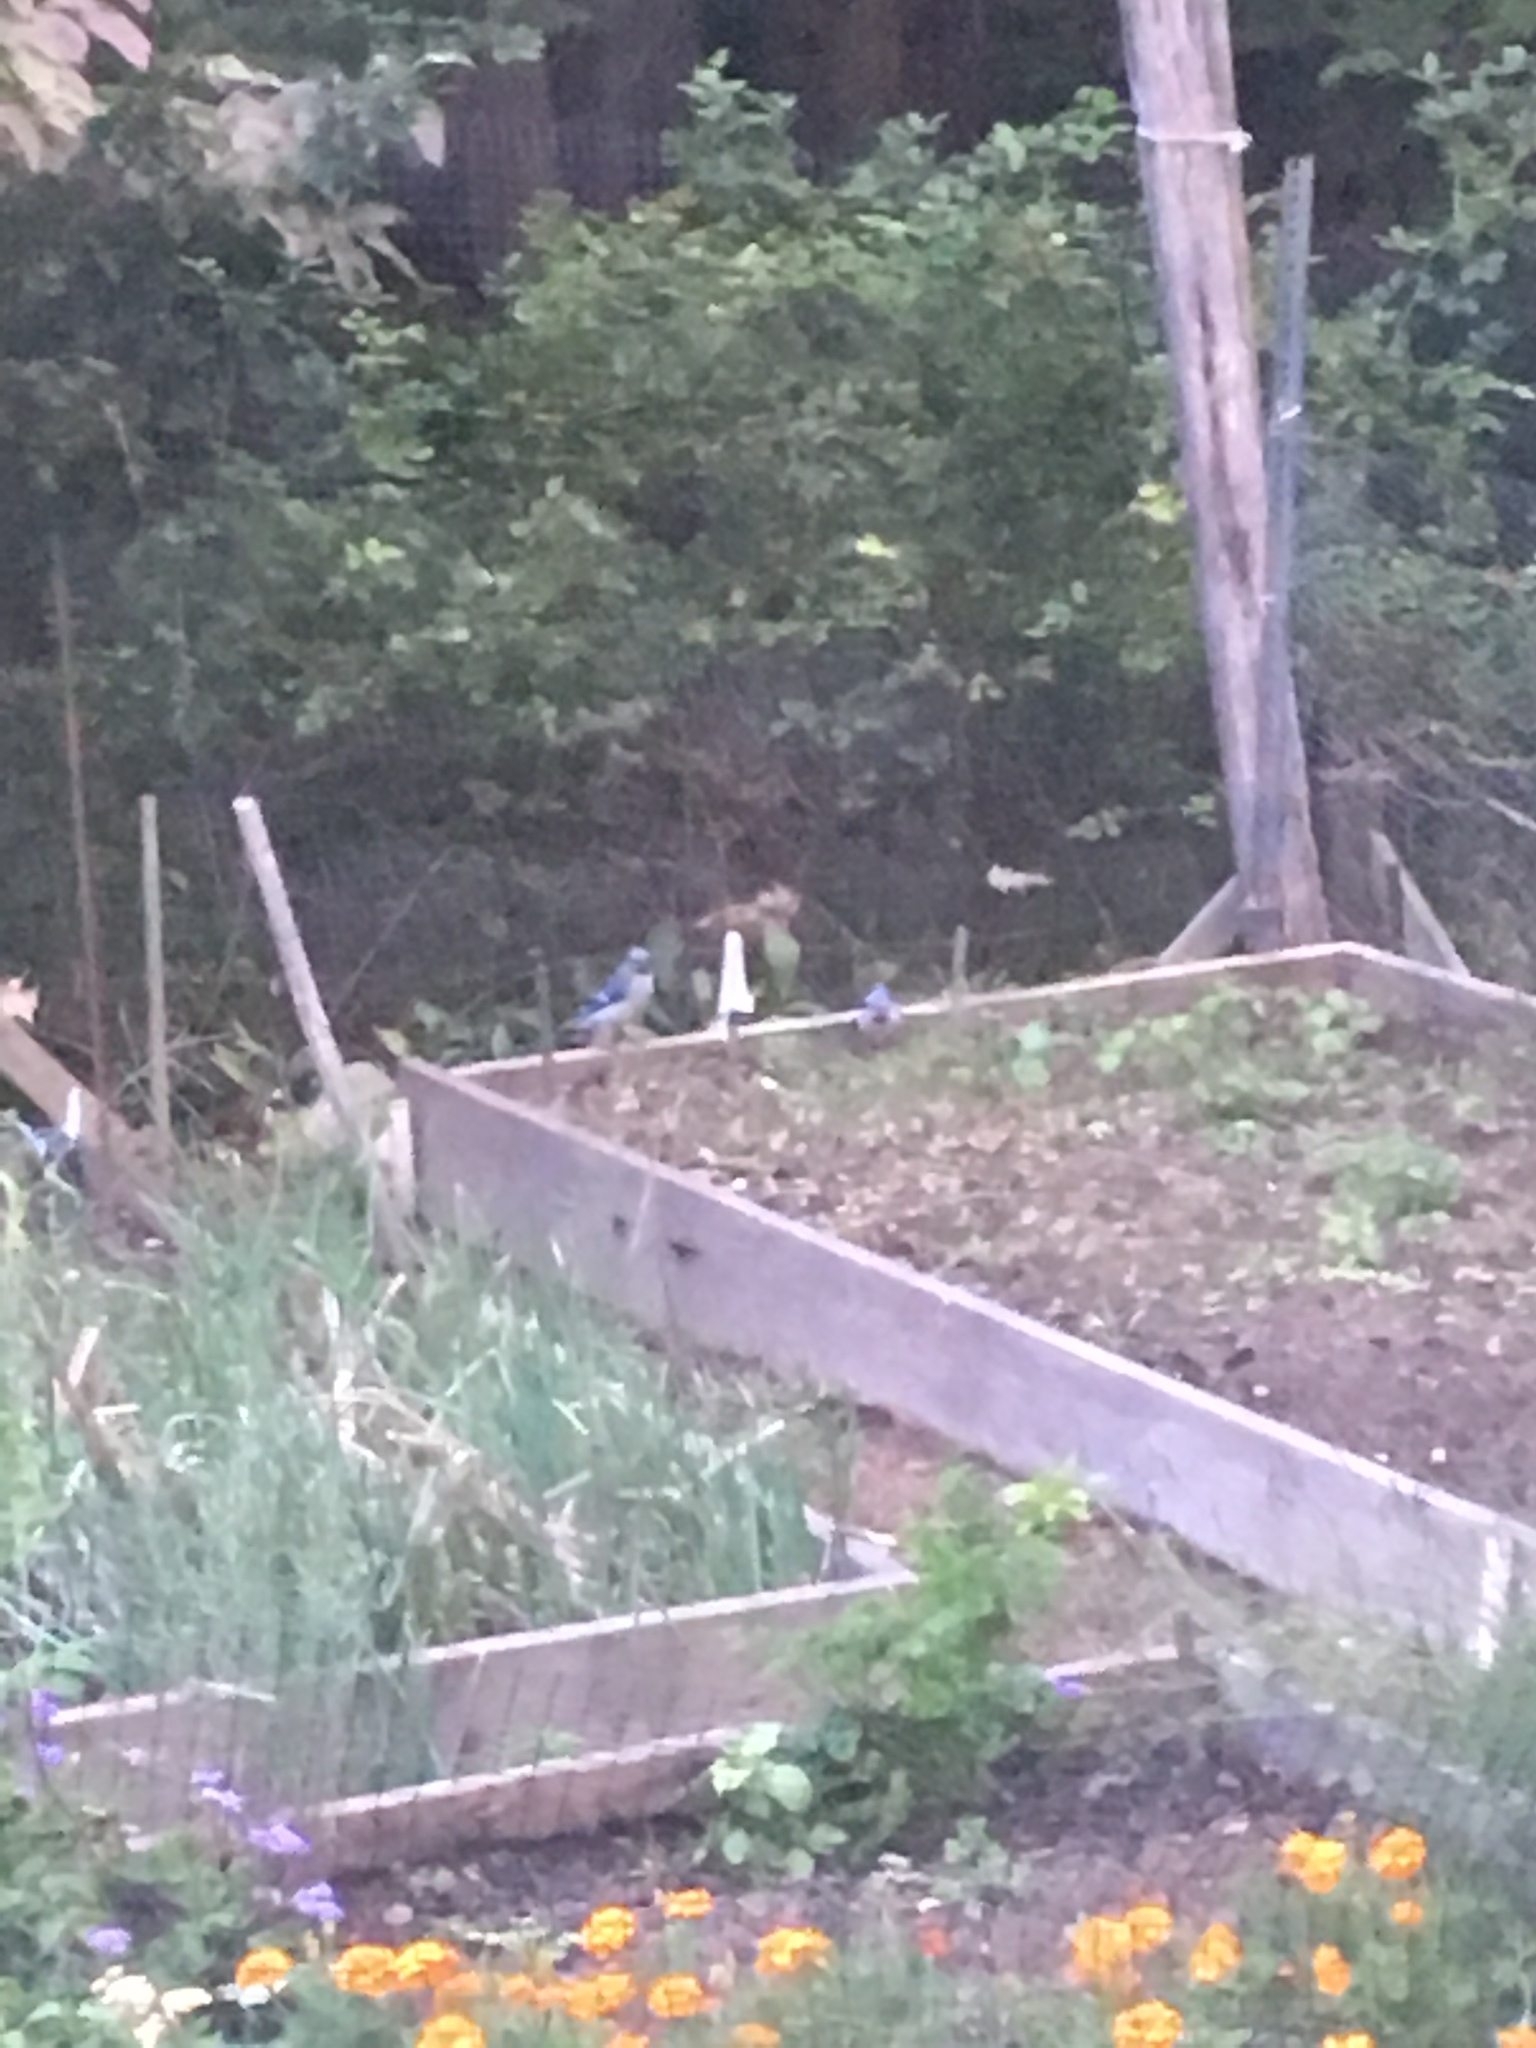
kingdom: Animalia
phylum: Chordata
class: Aves
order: Passeriformes
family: Corvidae
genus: Cyanocitta
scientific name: Cyanocitta cristata
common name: Blue jay
